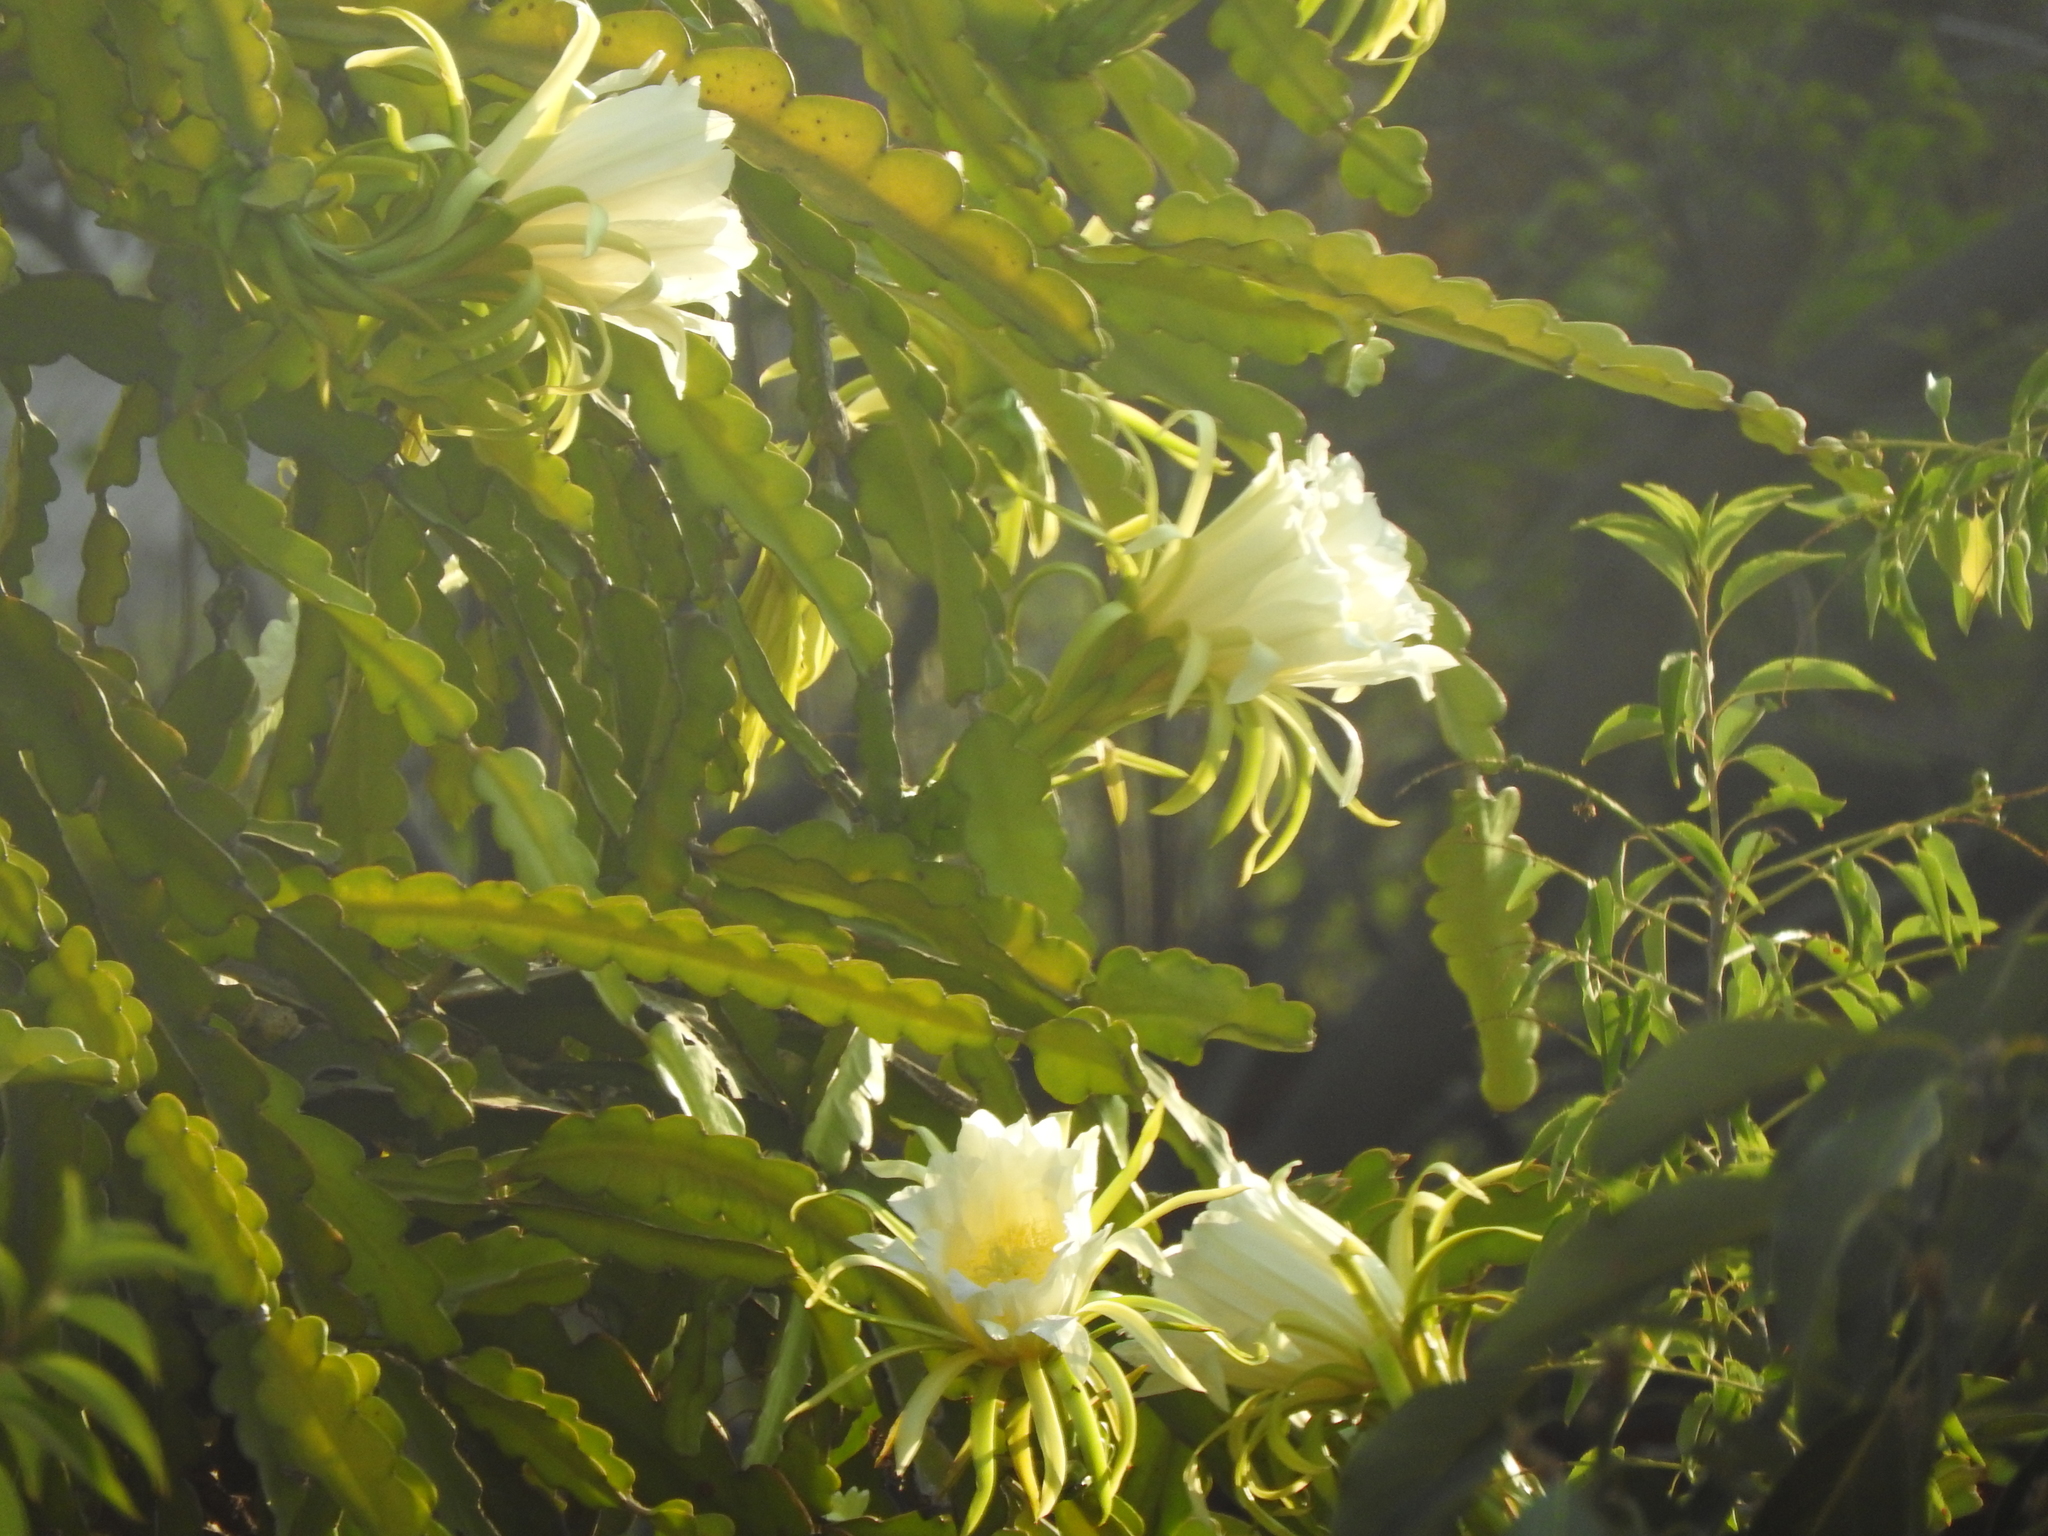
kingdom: Plantae
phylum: Tracheophyta
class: Magnoliopsida
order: Caryophyllales
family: Cactaceae
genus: Selenicereus
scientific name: Selenicereus undatus
